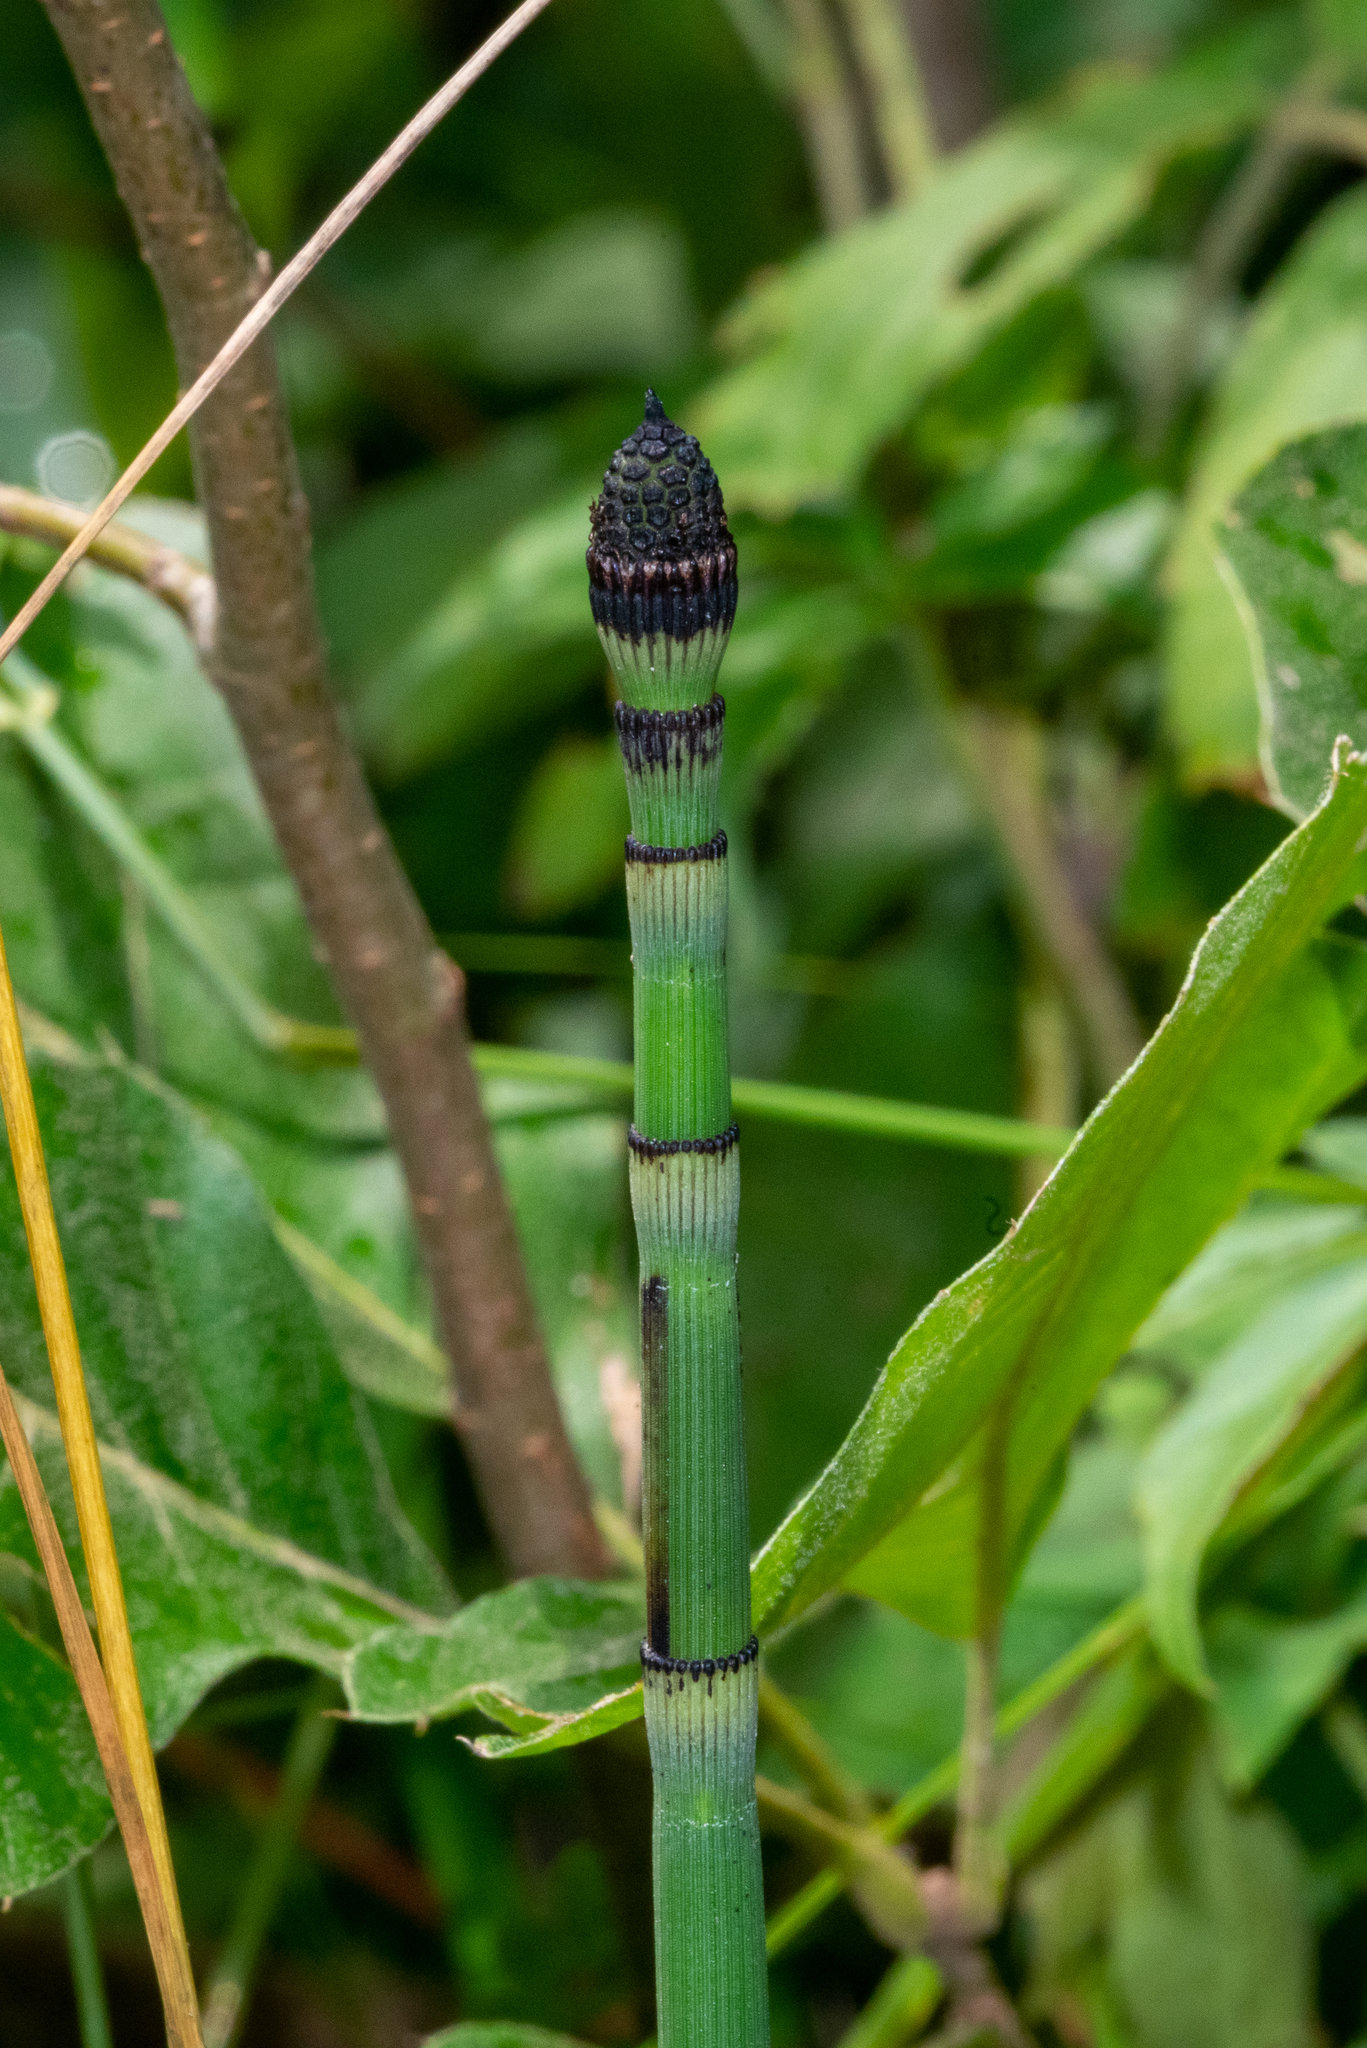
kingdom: Plantae
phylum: Tracheophyta
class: Polypodiopsida
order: Equisetales
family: Equisetaceae
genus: Equisetum
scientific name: Equisetum praealtum
